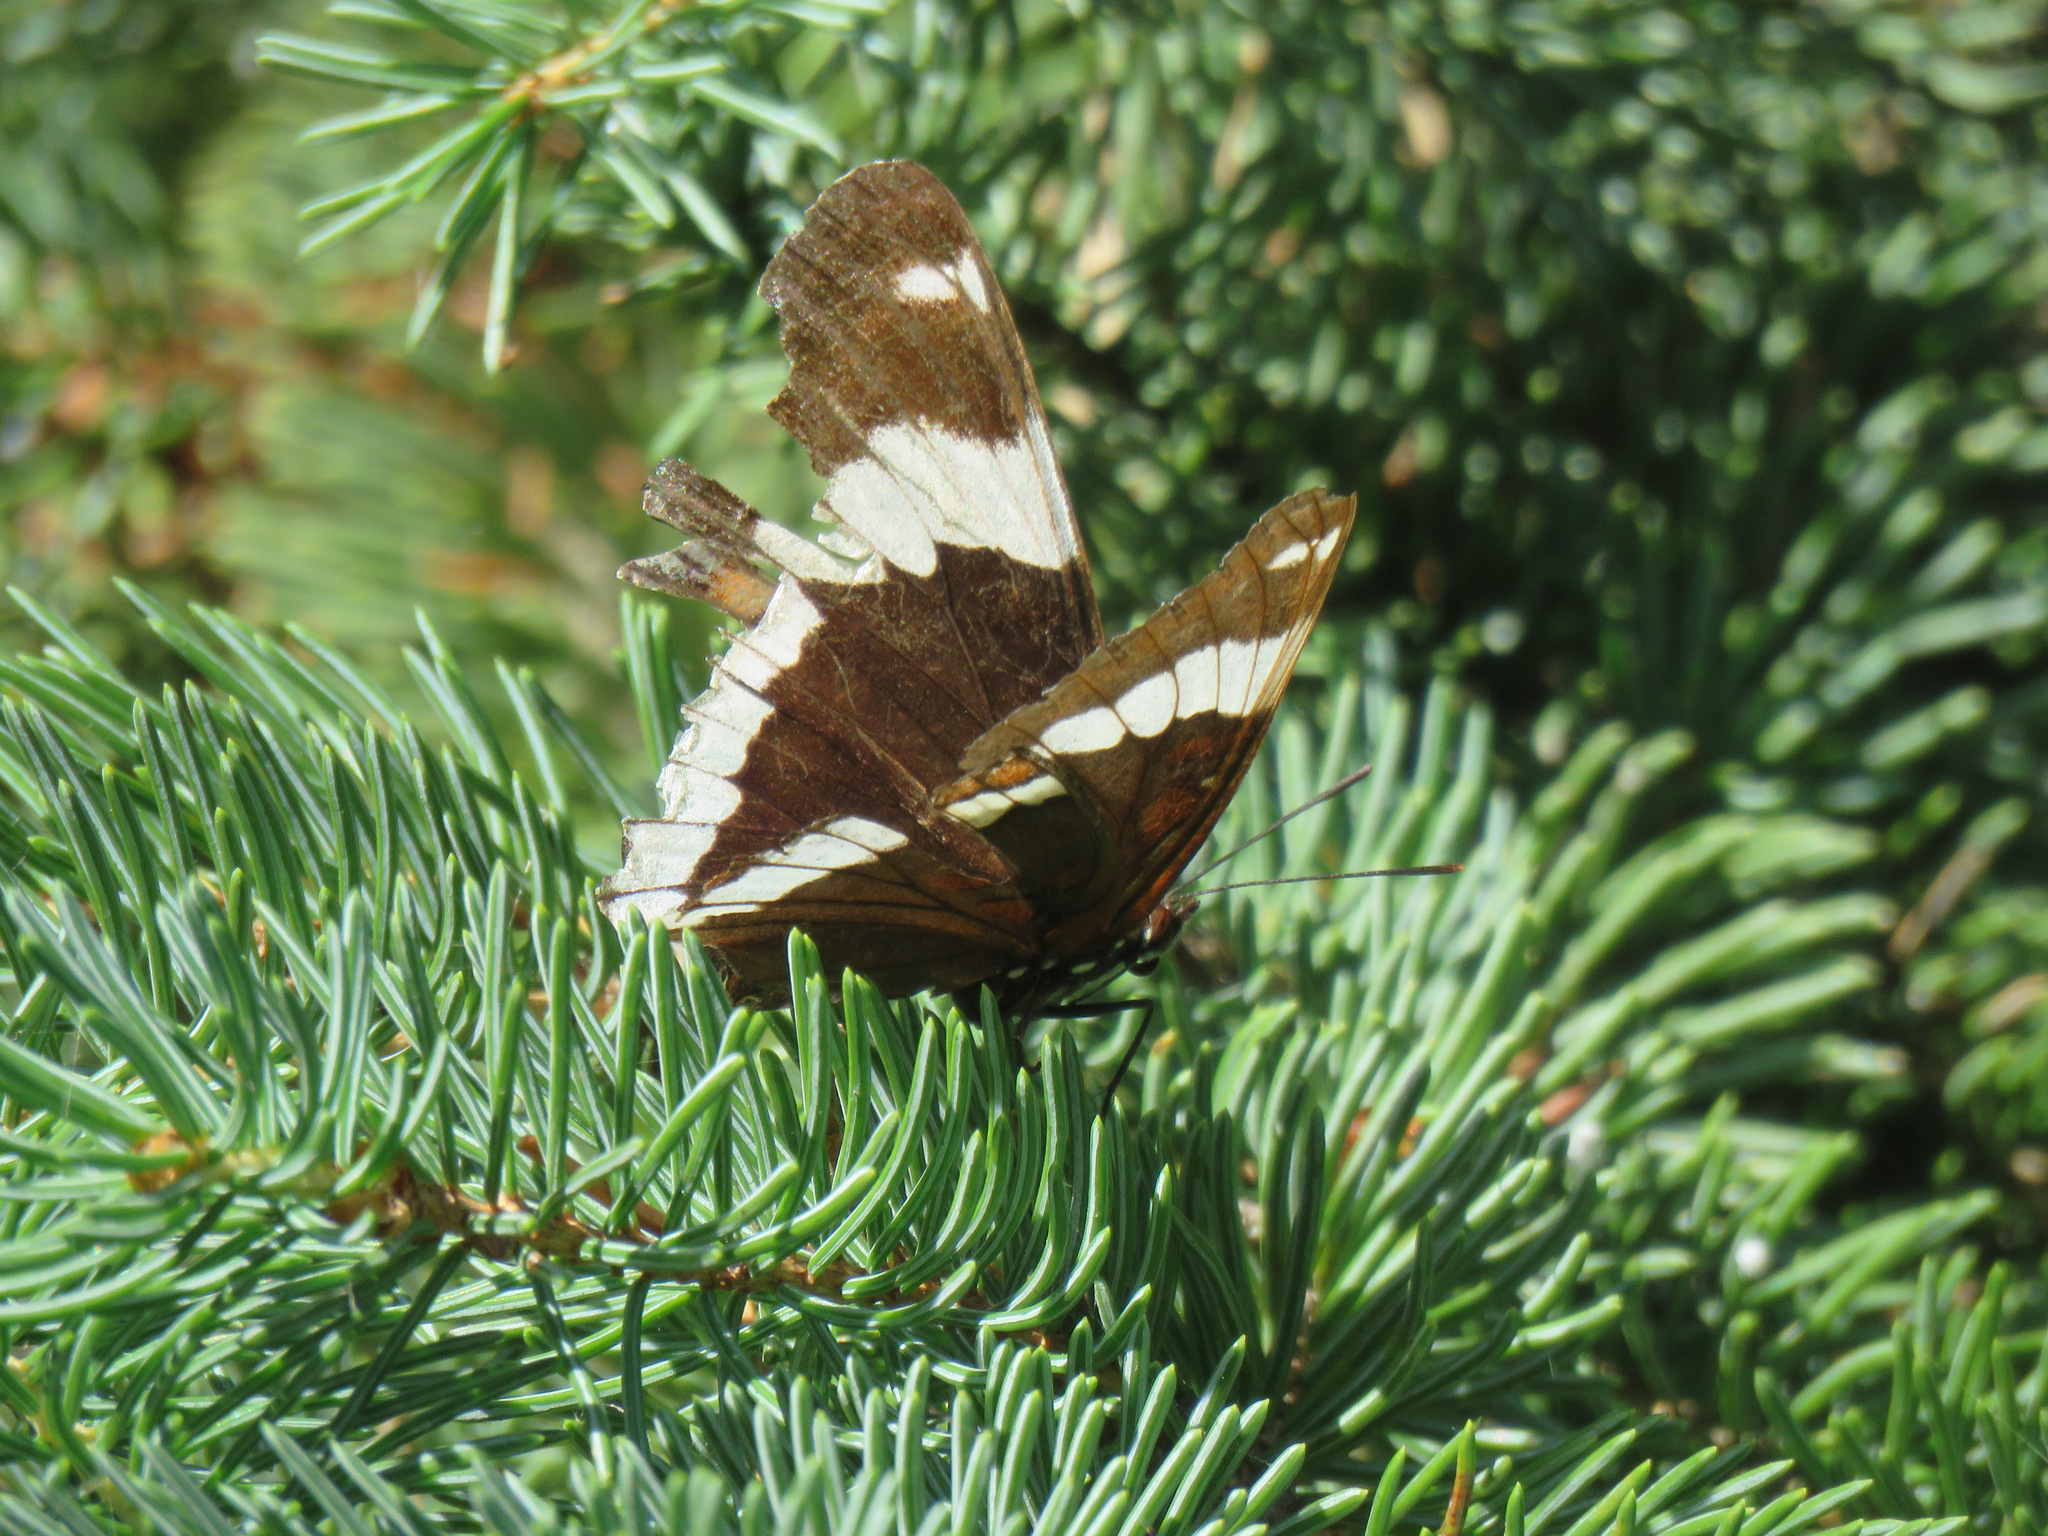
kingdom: Animalia
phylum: Arthropoda
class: Insecta
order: Lepidoptera
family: Nymphalidae
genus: Limenitis
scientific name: Limenitis arthemis
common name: Red-spotted admiral
